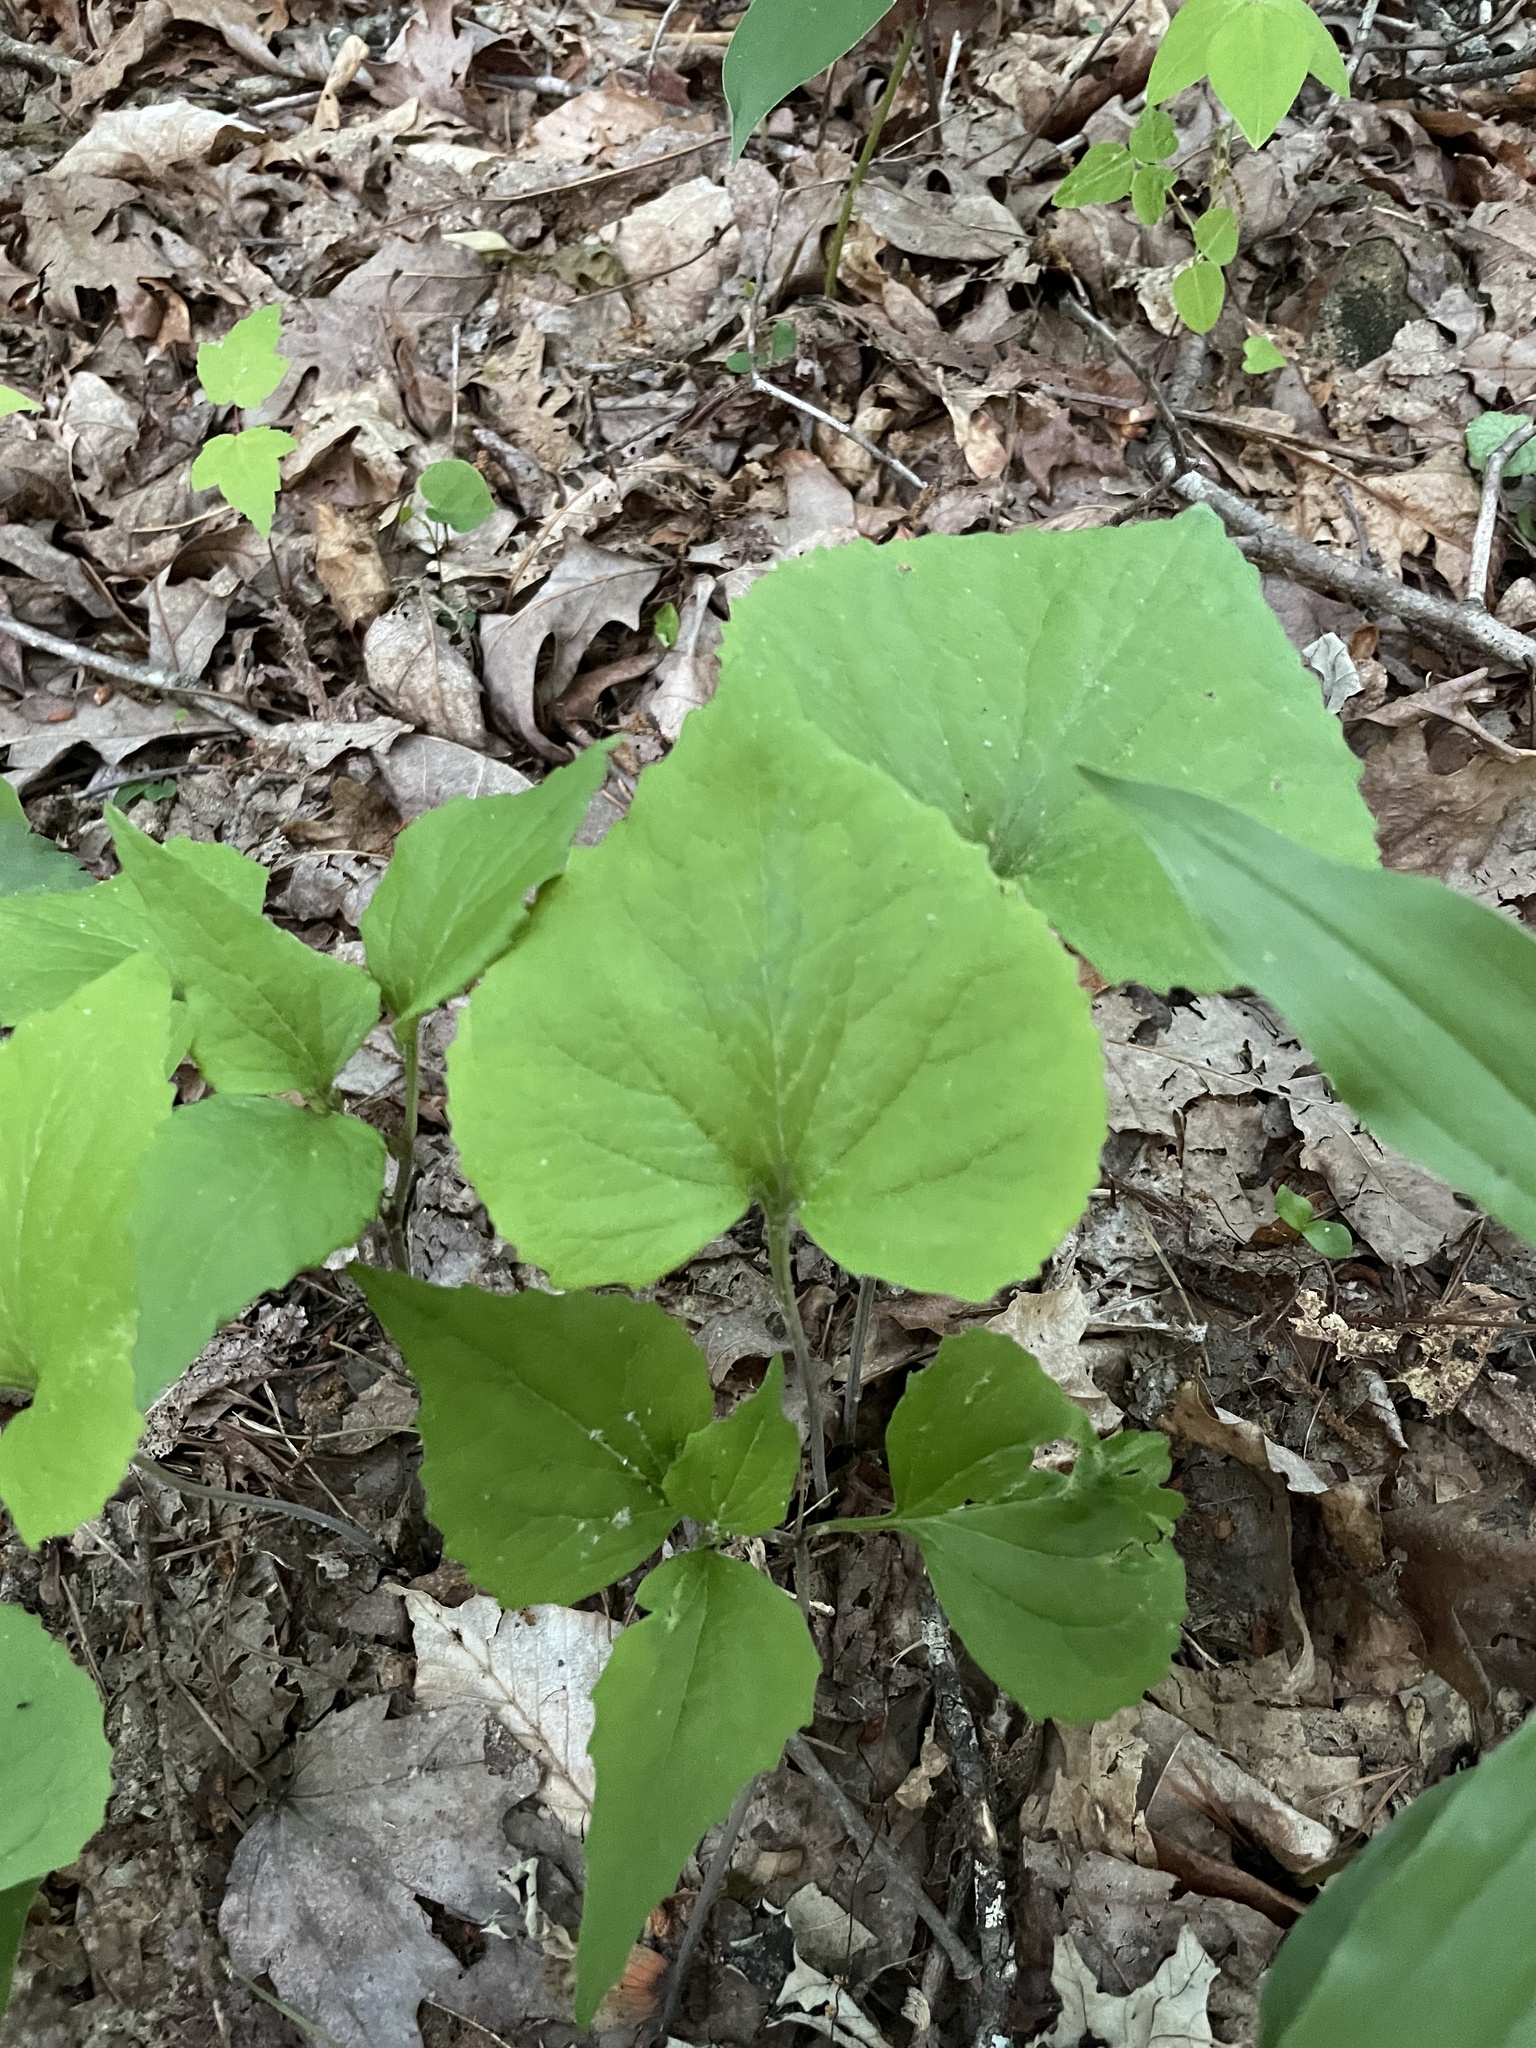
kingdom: Plantae
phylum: Tracheophyta
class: Magnoliopsida
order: Malpighiales
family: Violaceae
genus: Viola
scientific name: Viola eriocarpa
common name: Smooth yellow violet
